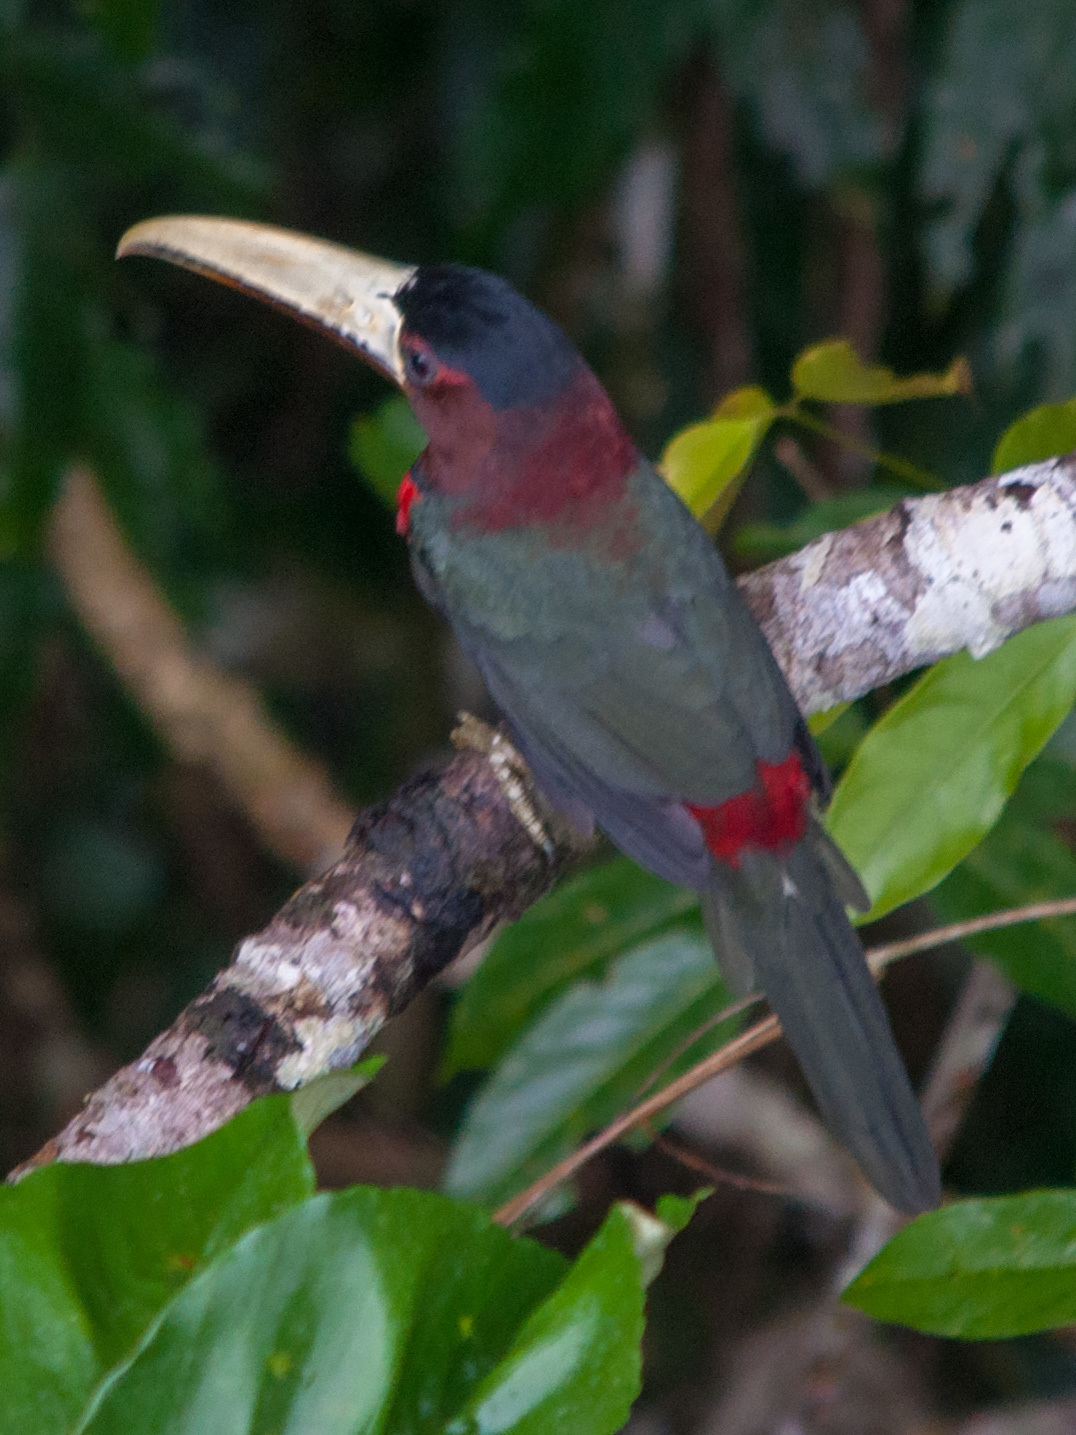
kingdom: Animalia
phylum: Chordata
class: Aves
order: Piciformes
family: Ramphastidae
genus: Pteroglossus
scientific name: Pteroglossus azara
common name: Ivory-billed aracari
